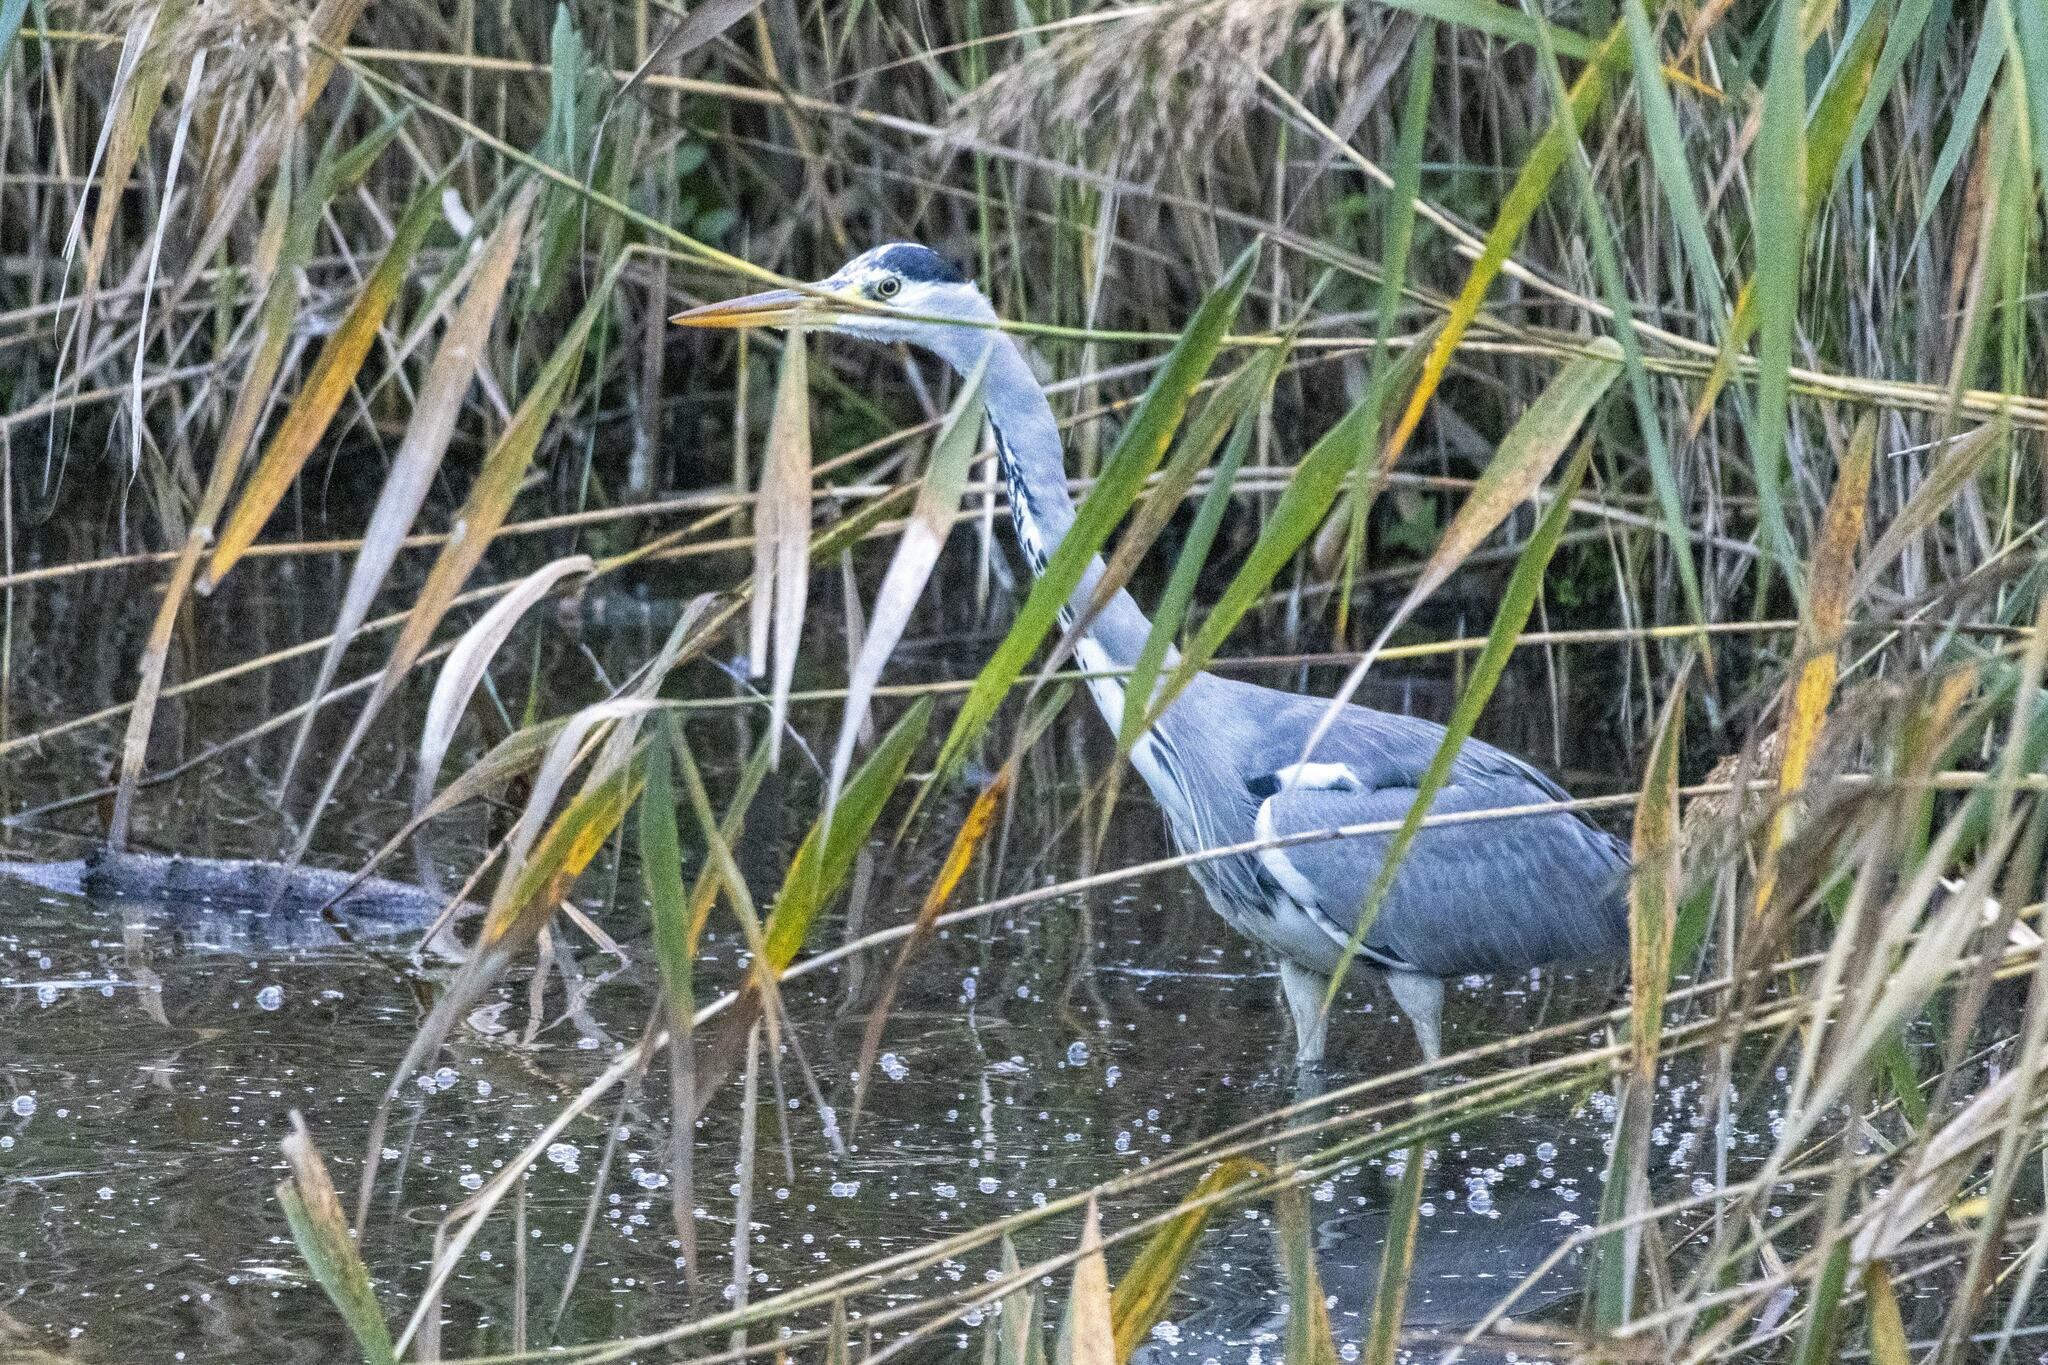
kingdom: Animalia
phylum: Chordata
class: Aves
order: Pelecaniformes
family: Ardeidae
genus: Ardea
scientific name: Ardea cinerea
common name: Grey heron
